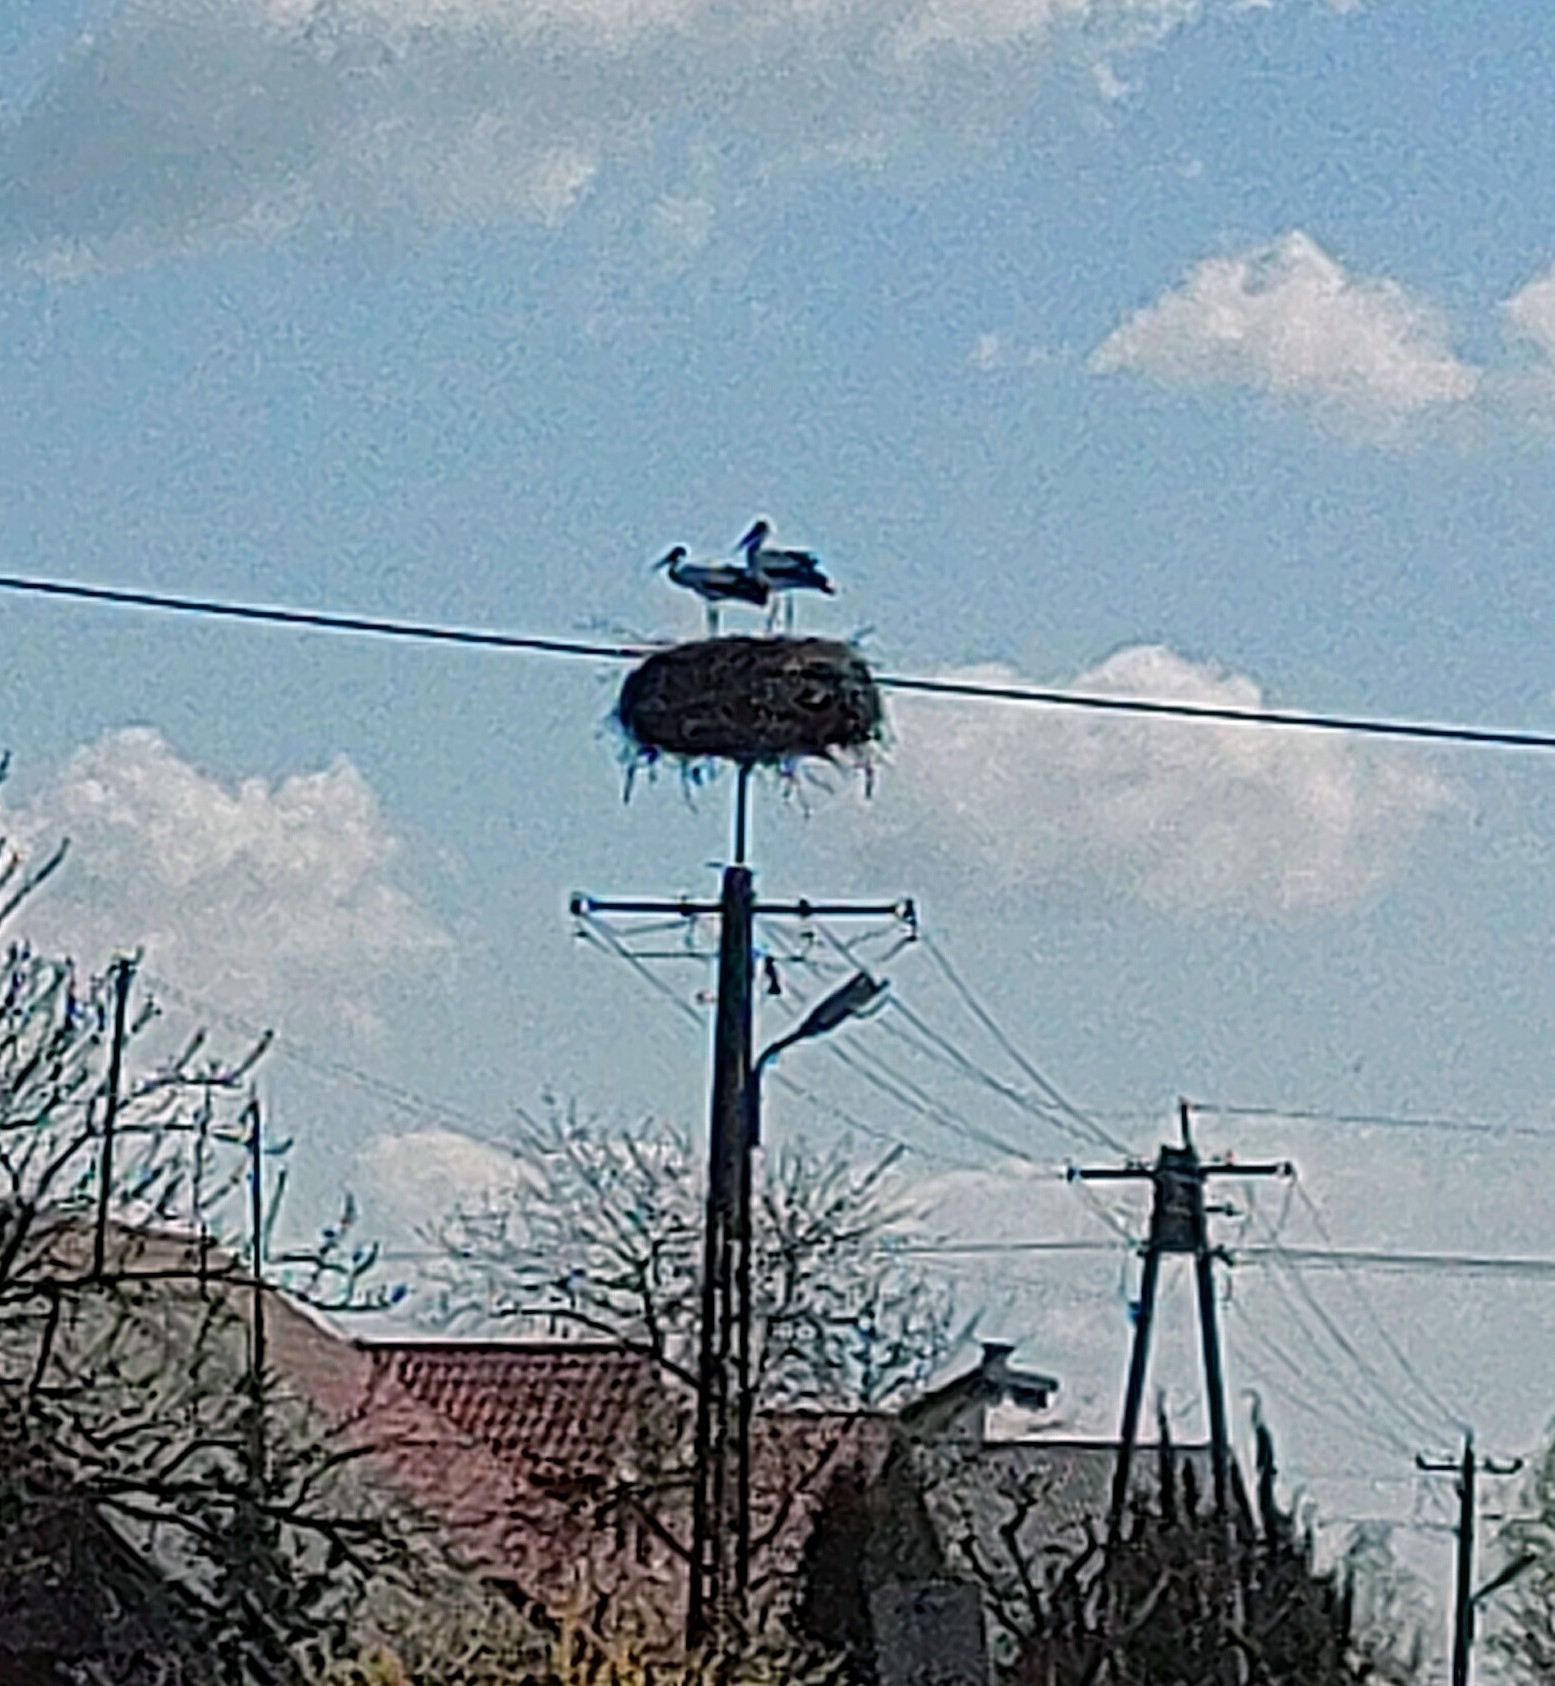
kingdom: Animalia
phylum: Chordata
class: Aves
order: Ciconiiformes
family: Ciconiidae
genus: Ciconia
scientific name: Ciconia ciconia
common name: White stork
